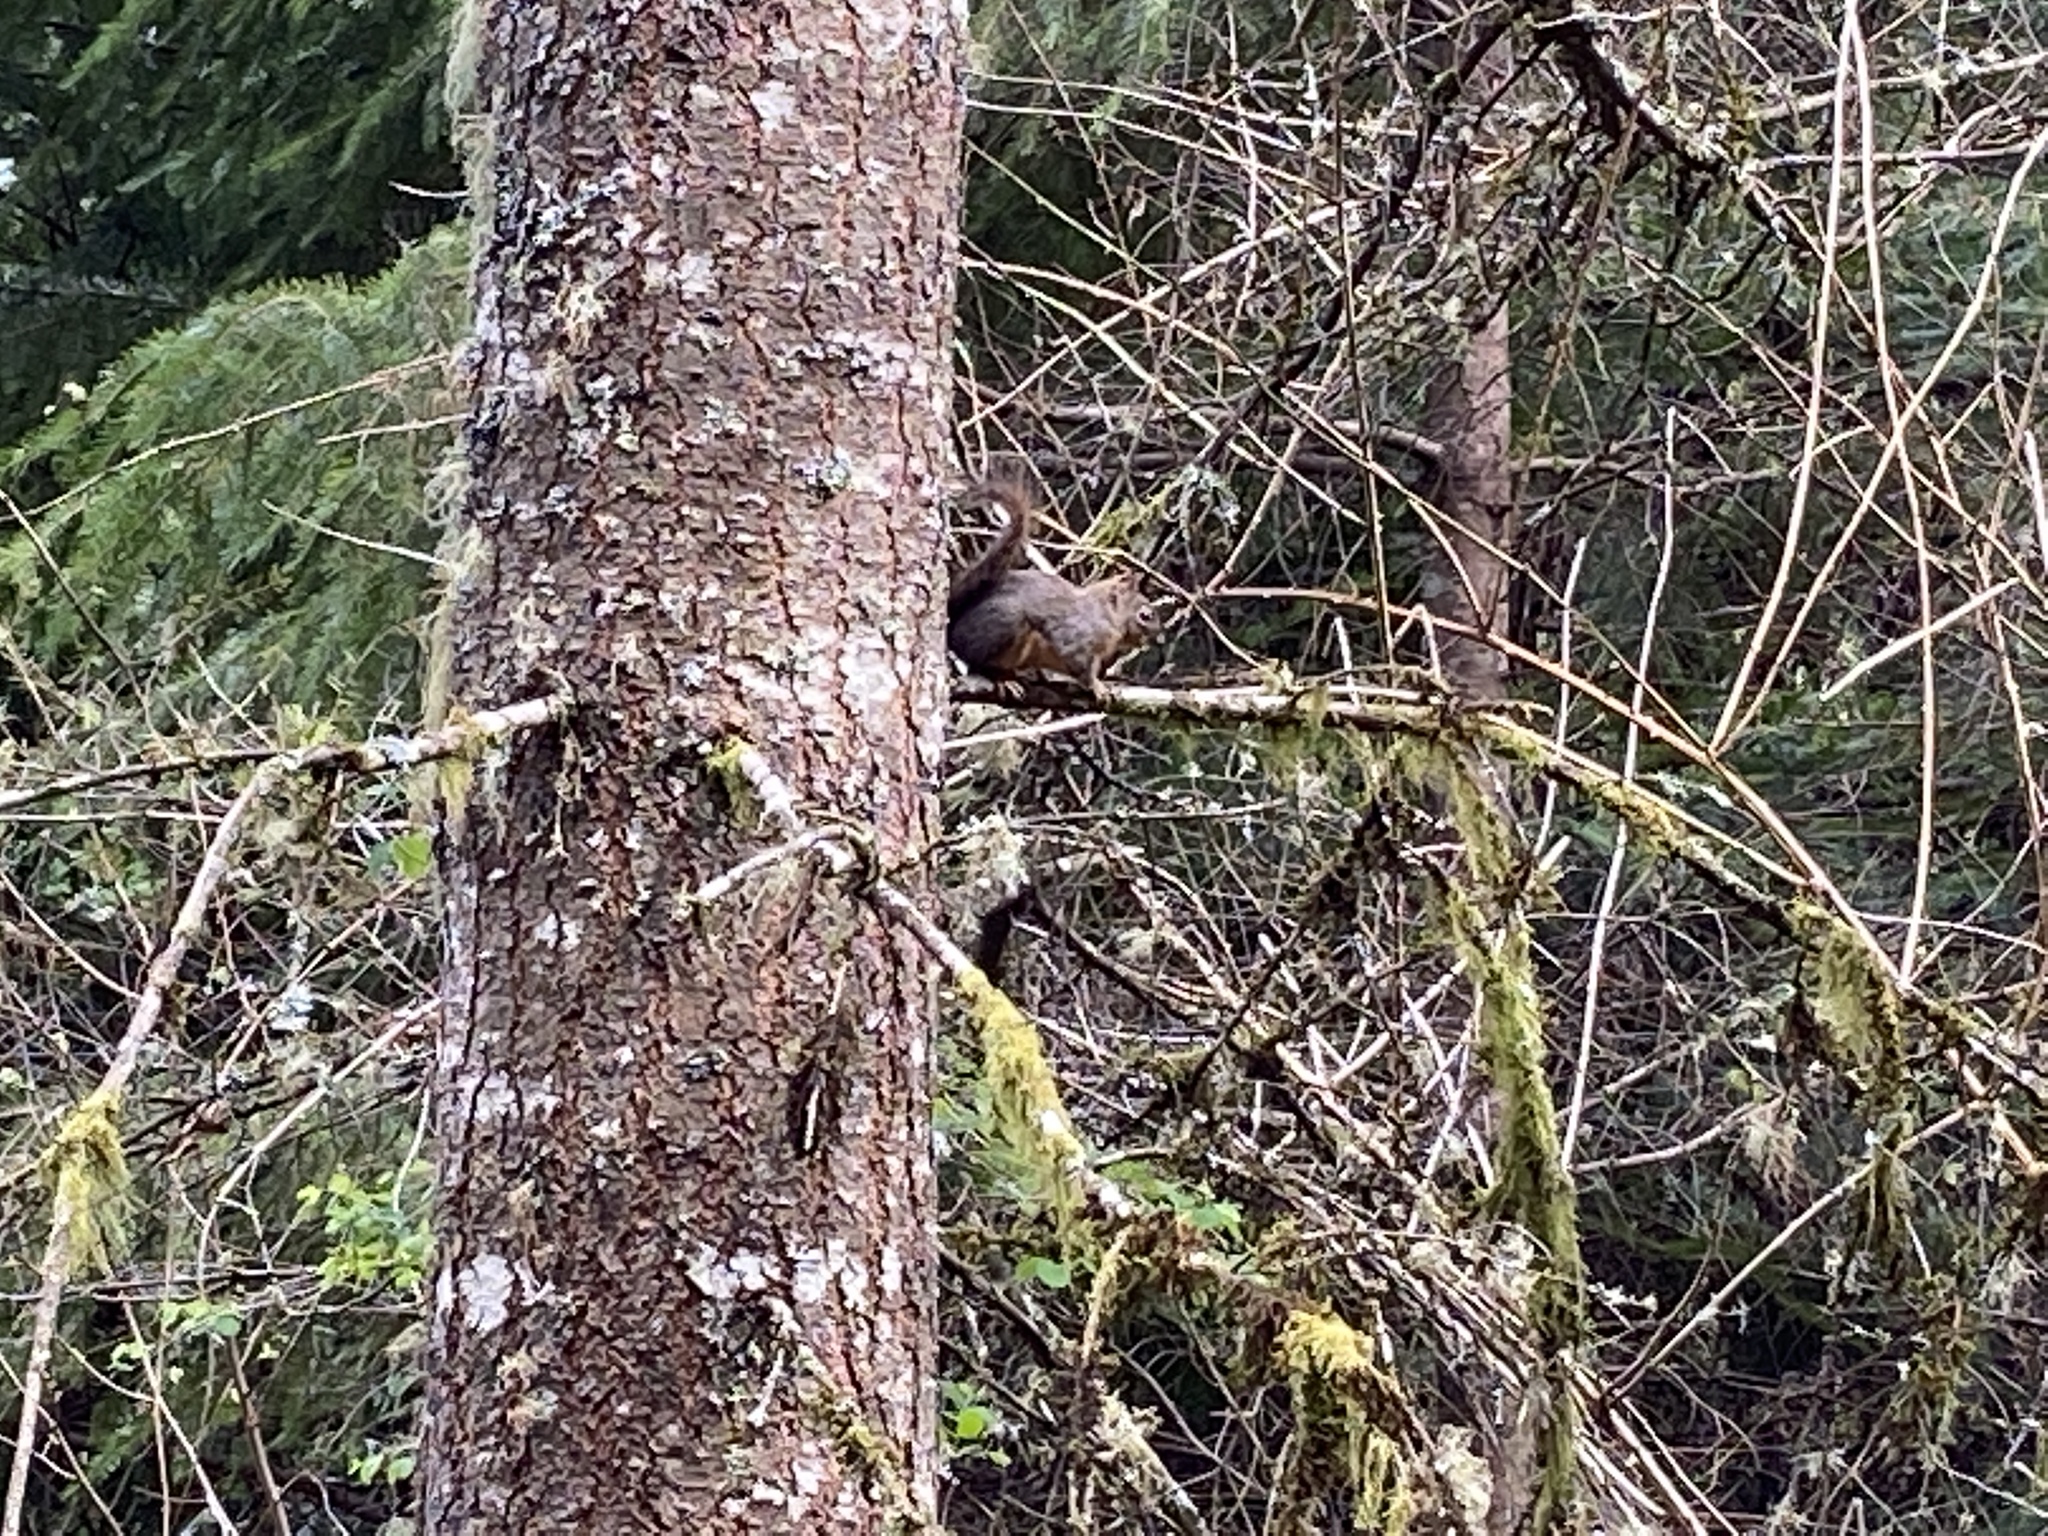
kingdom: Animalia
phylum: Chordata
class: Mammalia
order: Rodentia
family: Sciuridae
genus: Tamiasciurus
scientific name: Tamiasciurus douglasii
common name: Douglas's squirrel
